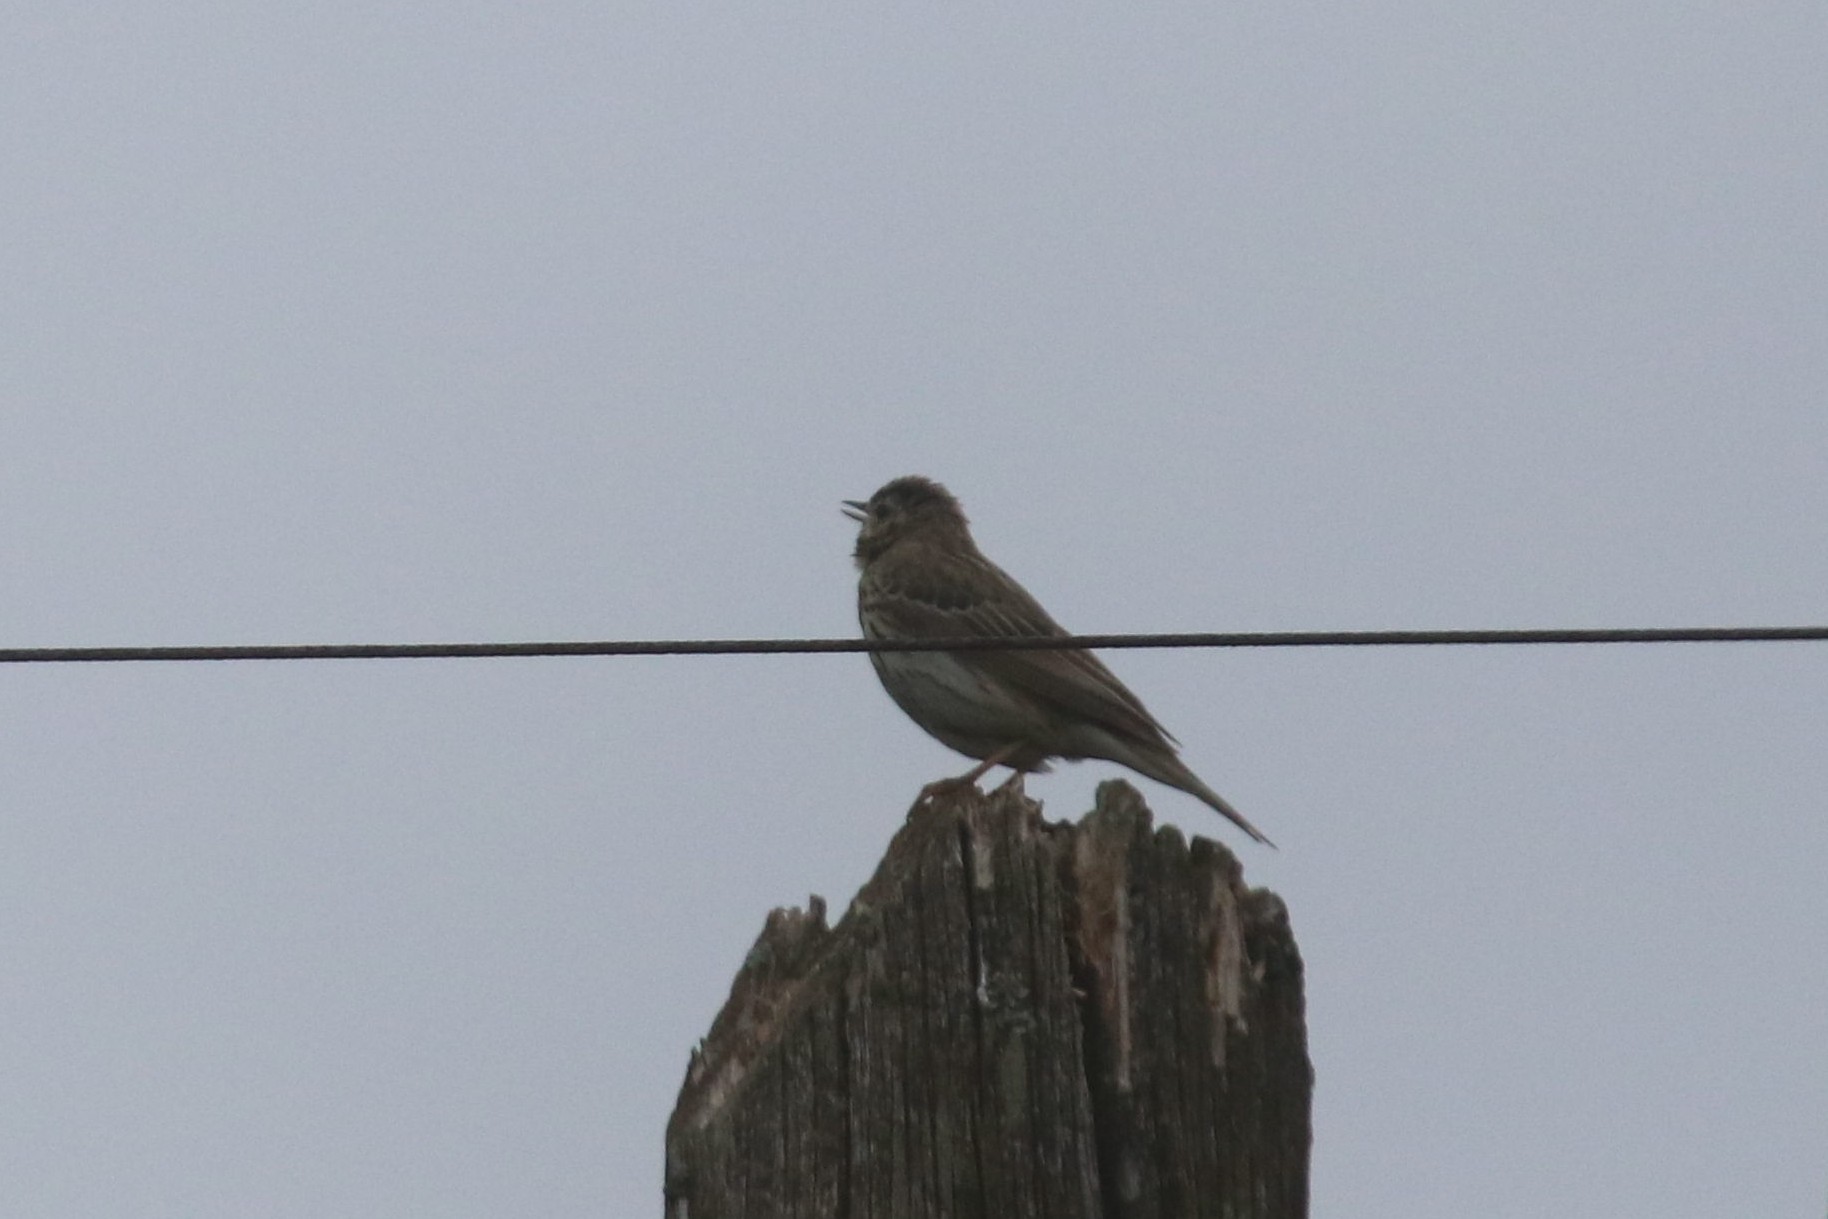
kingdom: Animalia
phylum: Chordata
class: Aves
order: Passeriformes
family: Motacillidae
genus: Anthus
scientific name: Anthus trivialis
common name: Tree pipit
